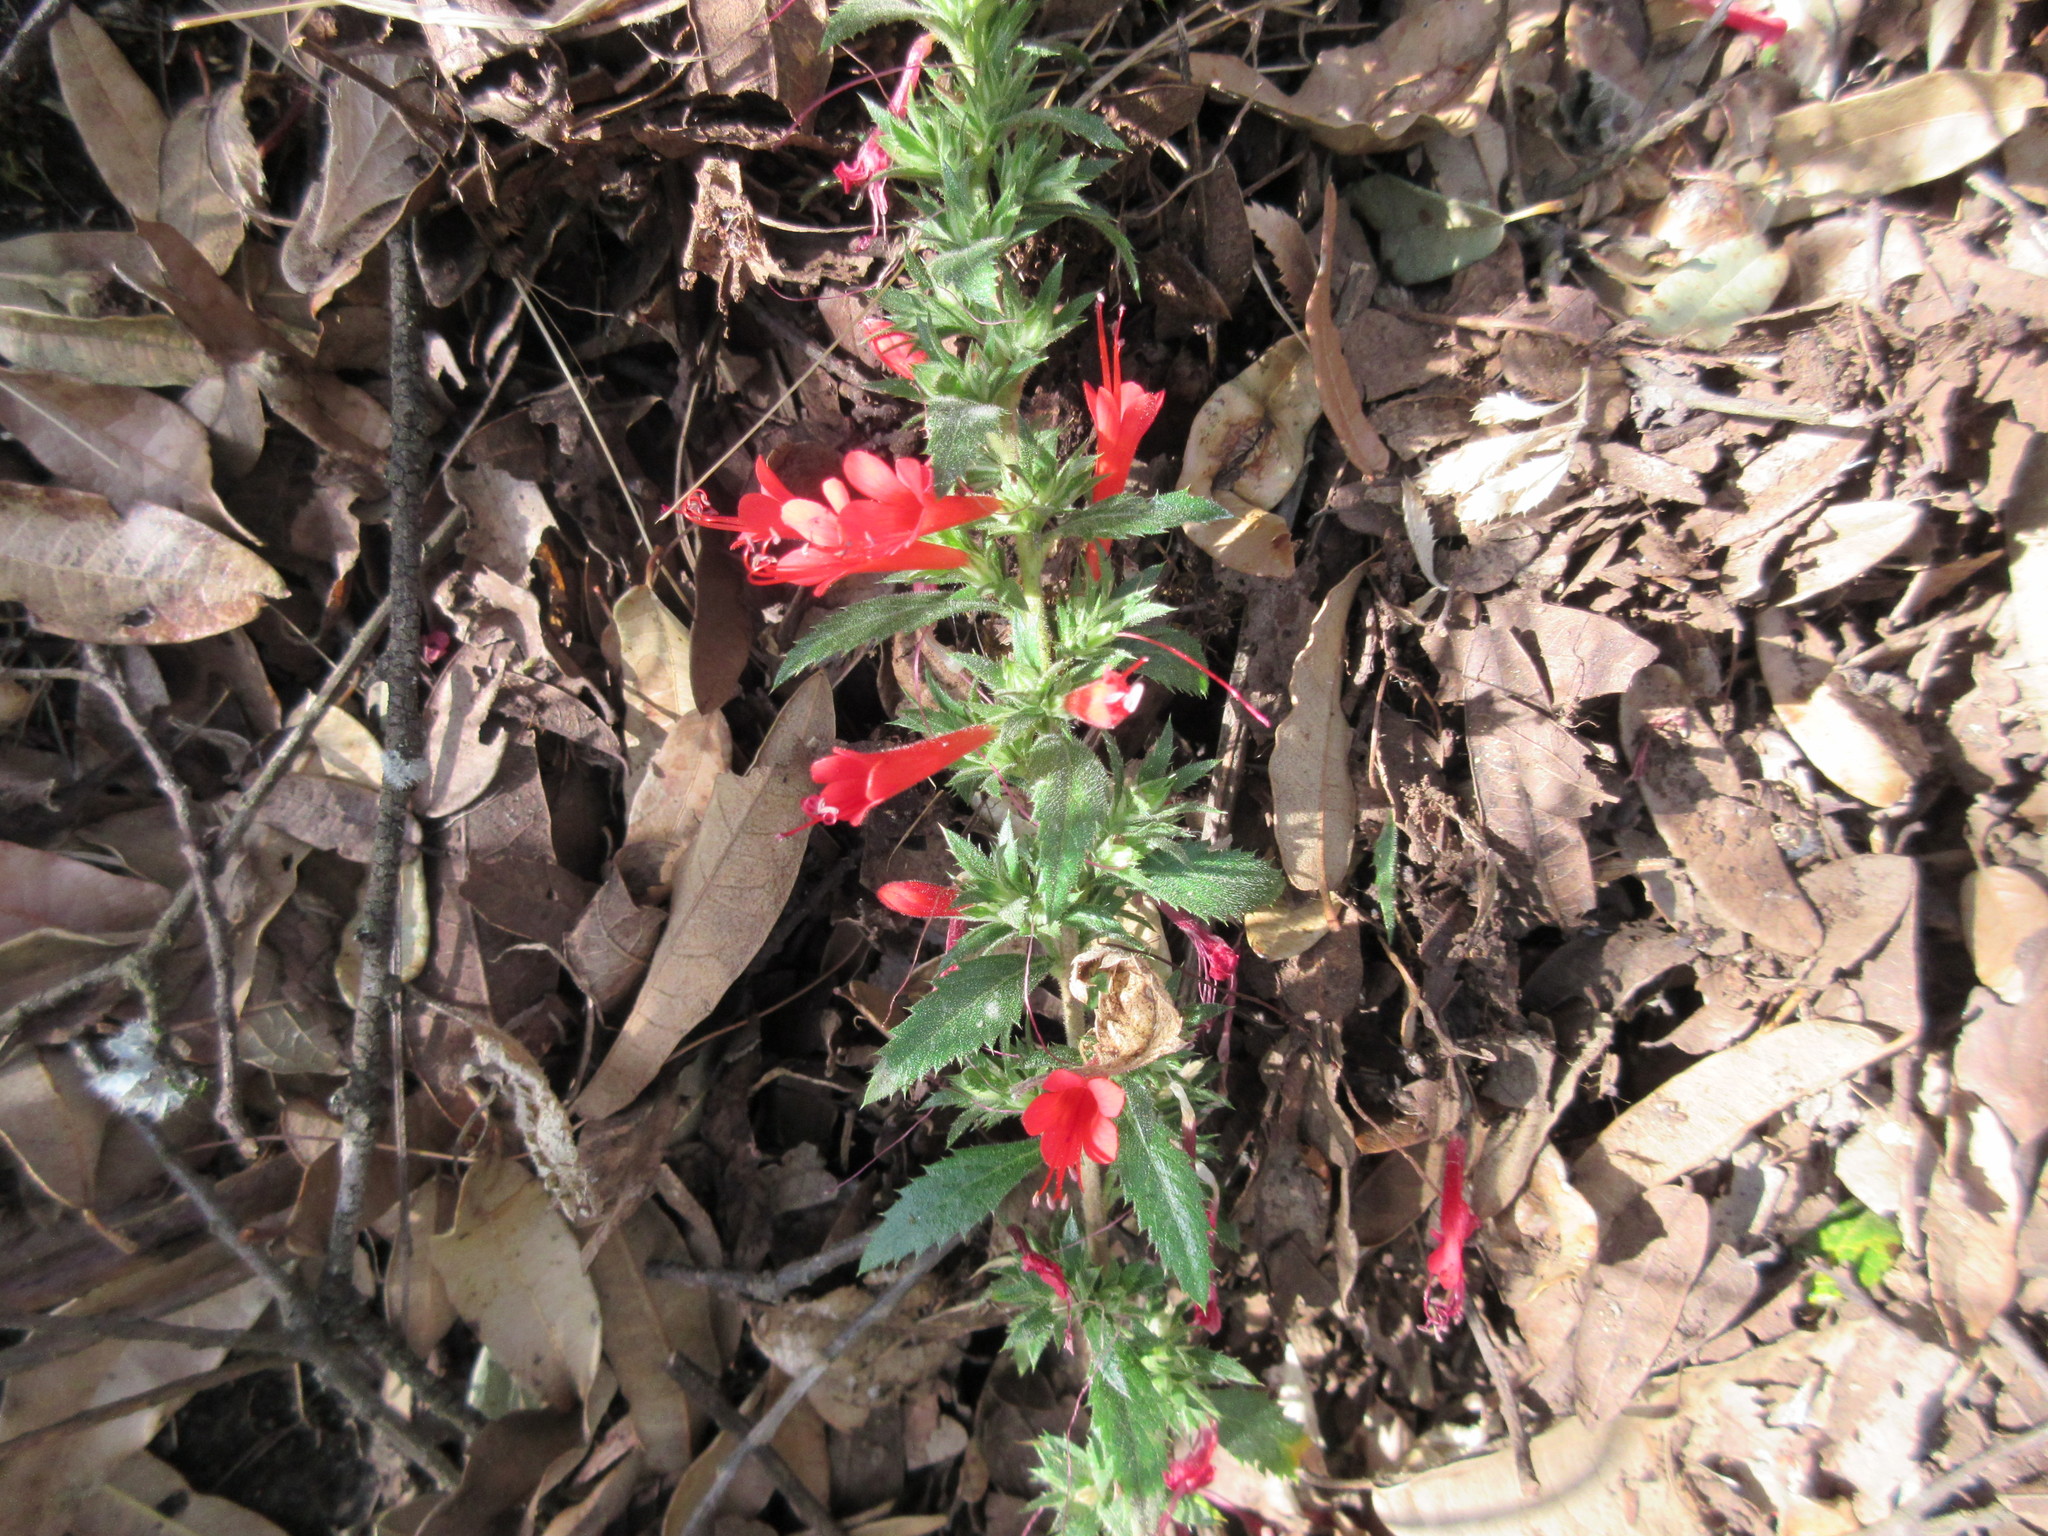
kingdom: Plantae
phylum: Tracheophyta
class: Magnoliopsida
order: Ericales
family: Polemoniaceae
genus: Loeselia
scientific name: Loeselia mexicana
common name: Mexican false calico
